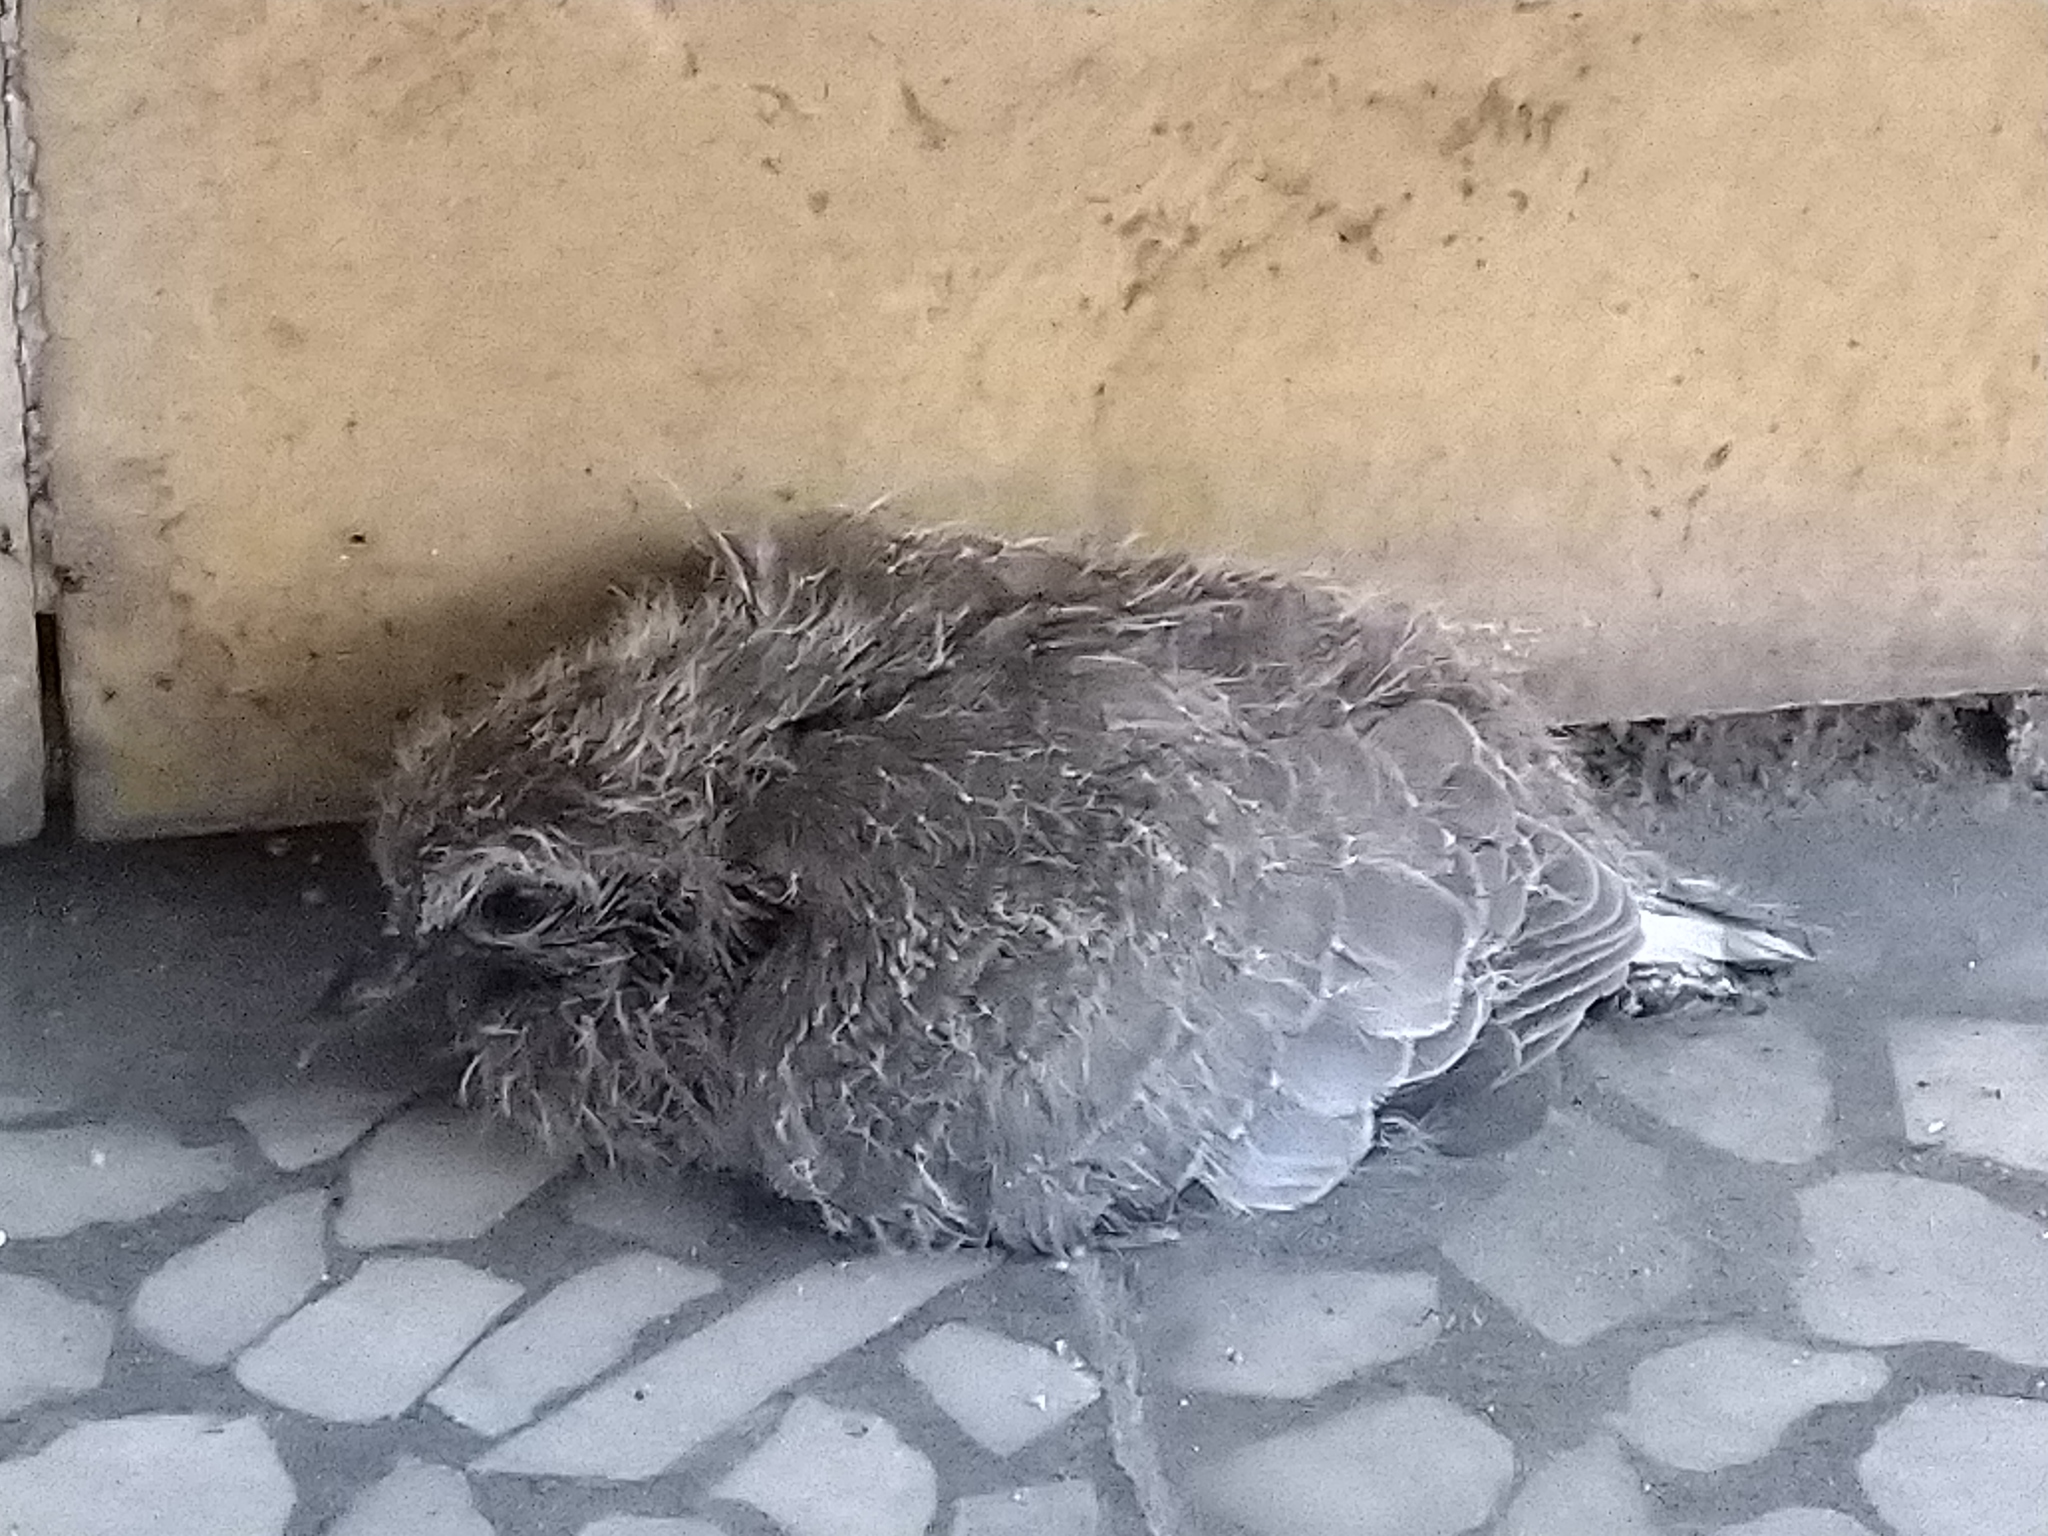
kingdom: Animalia
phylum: Chordata
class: Aves
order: Columbiformes
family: Columbidae
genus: Spilopelia
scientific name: Spilopelia senegalensis
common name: Laughing dove
